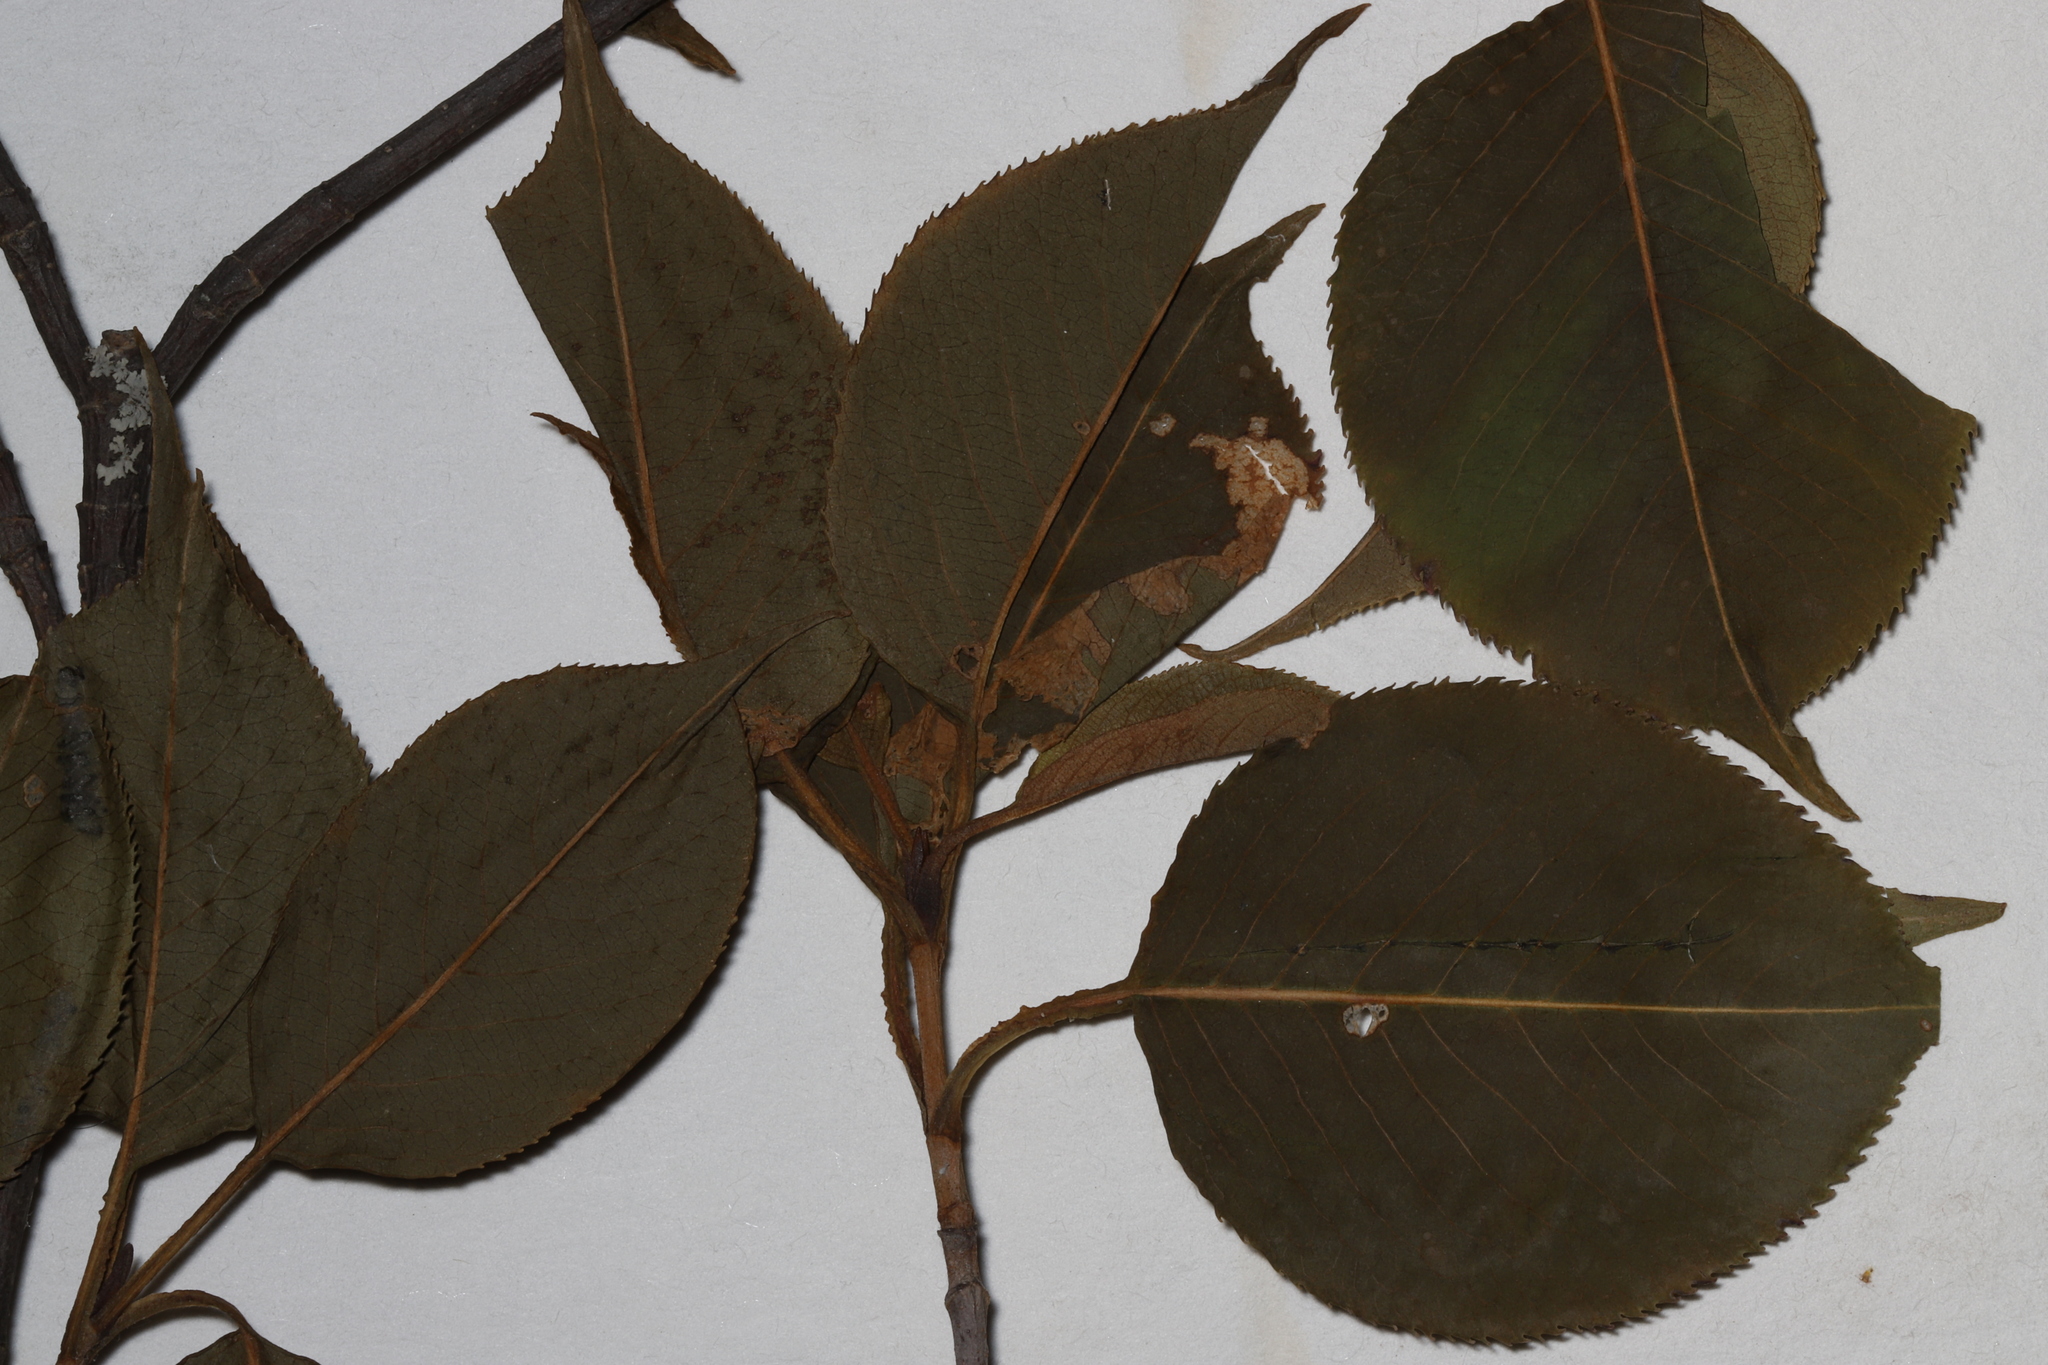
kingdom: Plantae
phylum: Tracheophyta
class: Magnoliopsida
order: Dipsacales
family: Viburnaceae
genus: Viburnum
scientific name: Viburnum lentago
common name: Black haw
